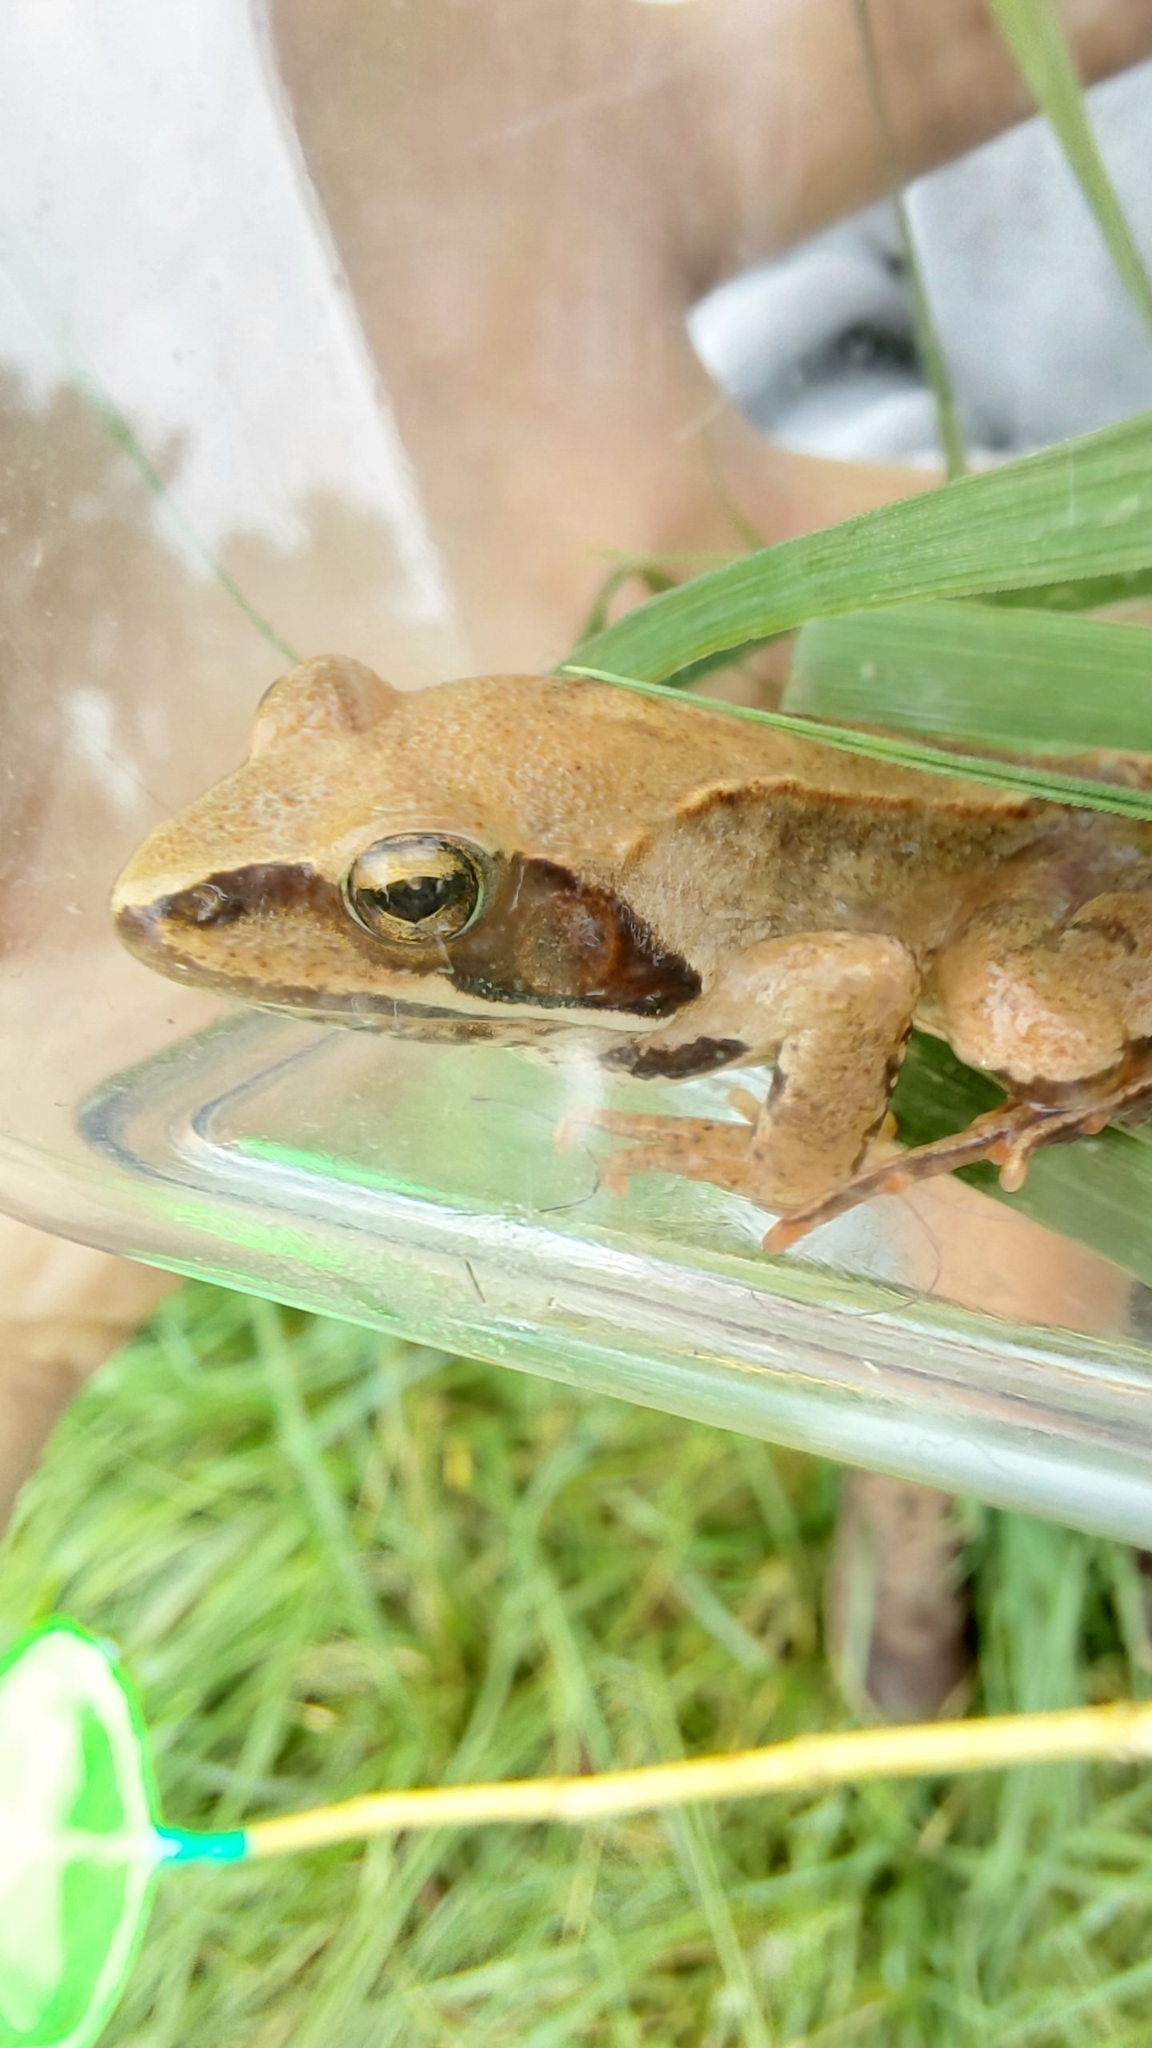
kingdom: Animalia
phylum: Chordata
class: Amphibia
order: Anura
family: Ranidae
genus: Rana
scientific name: Rana dalmatina
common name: Agile frog
